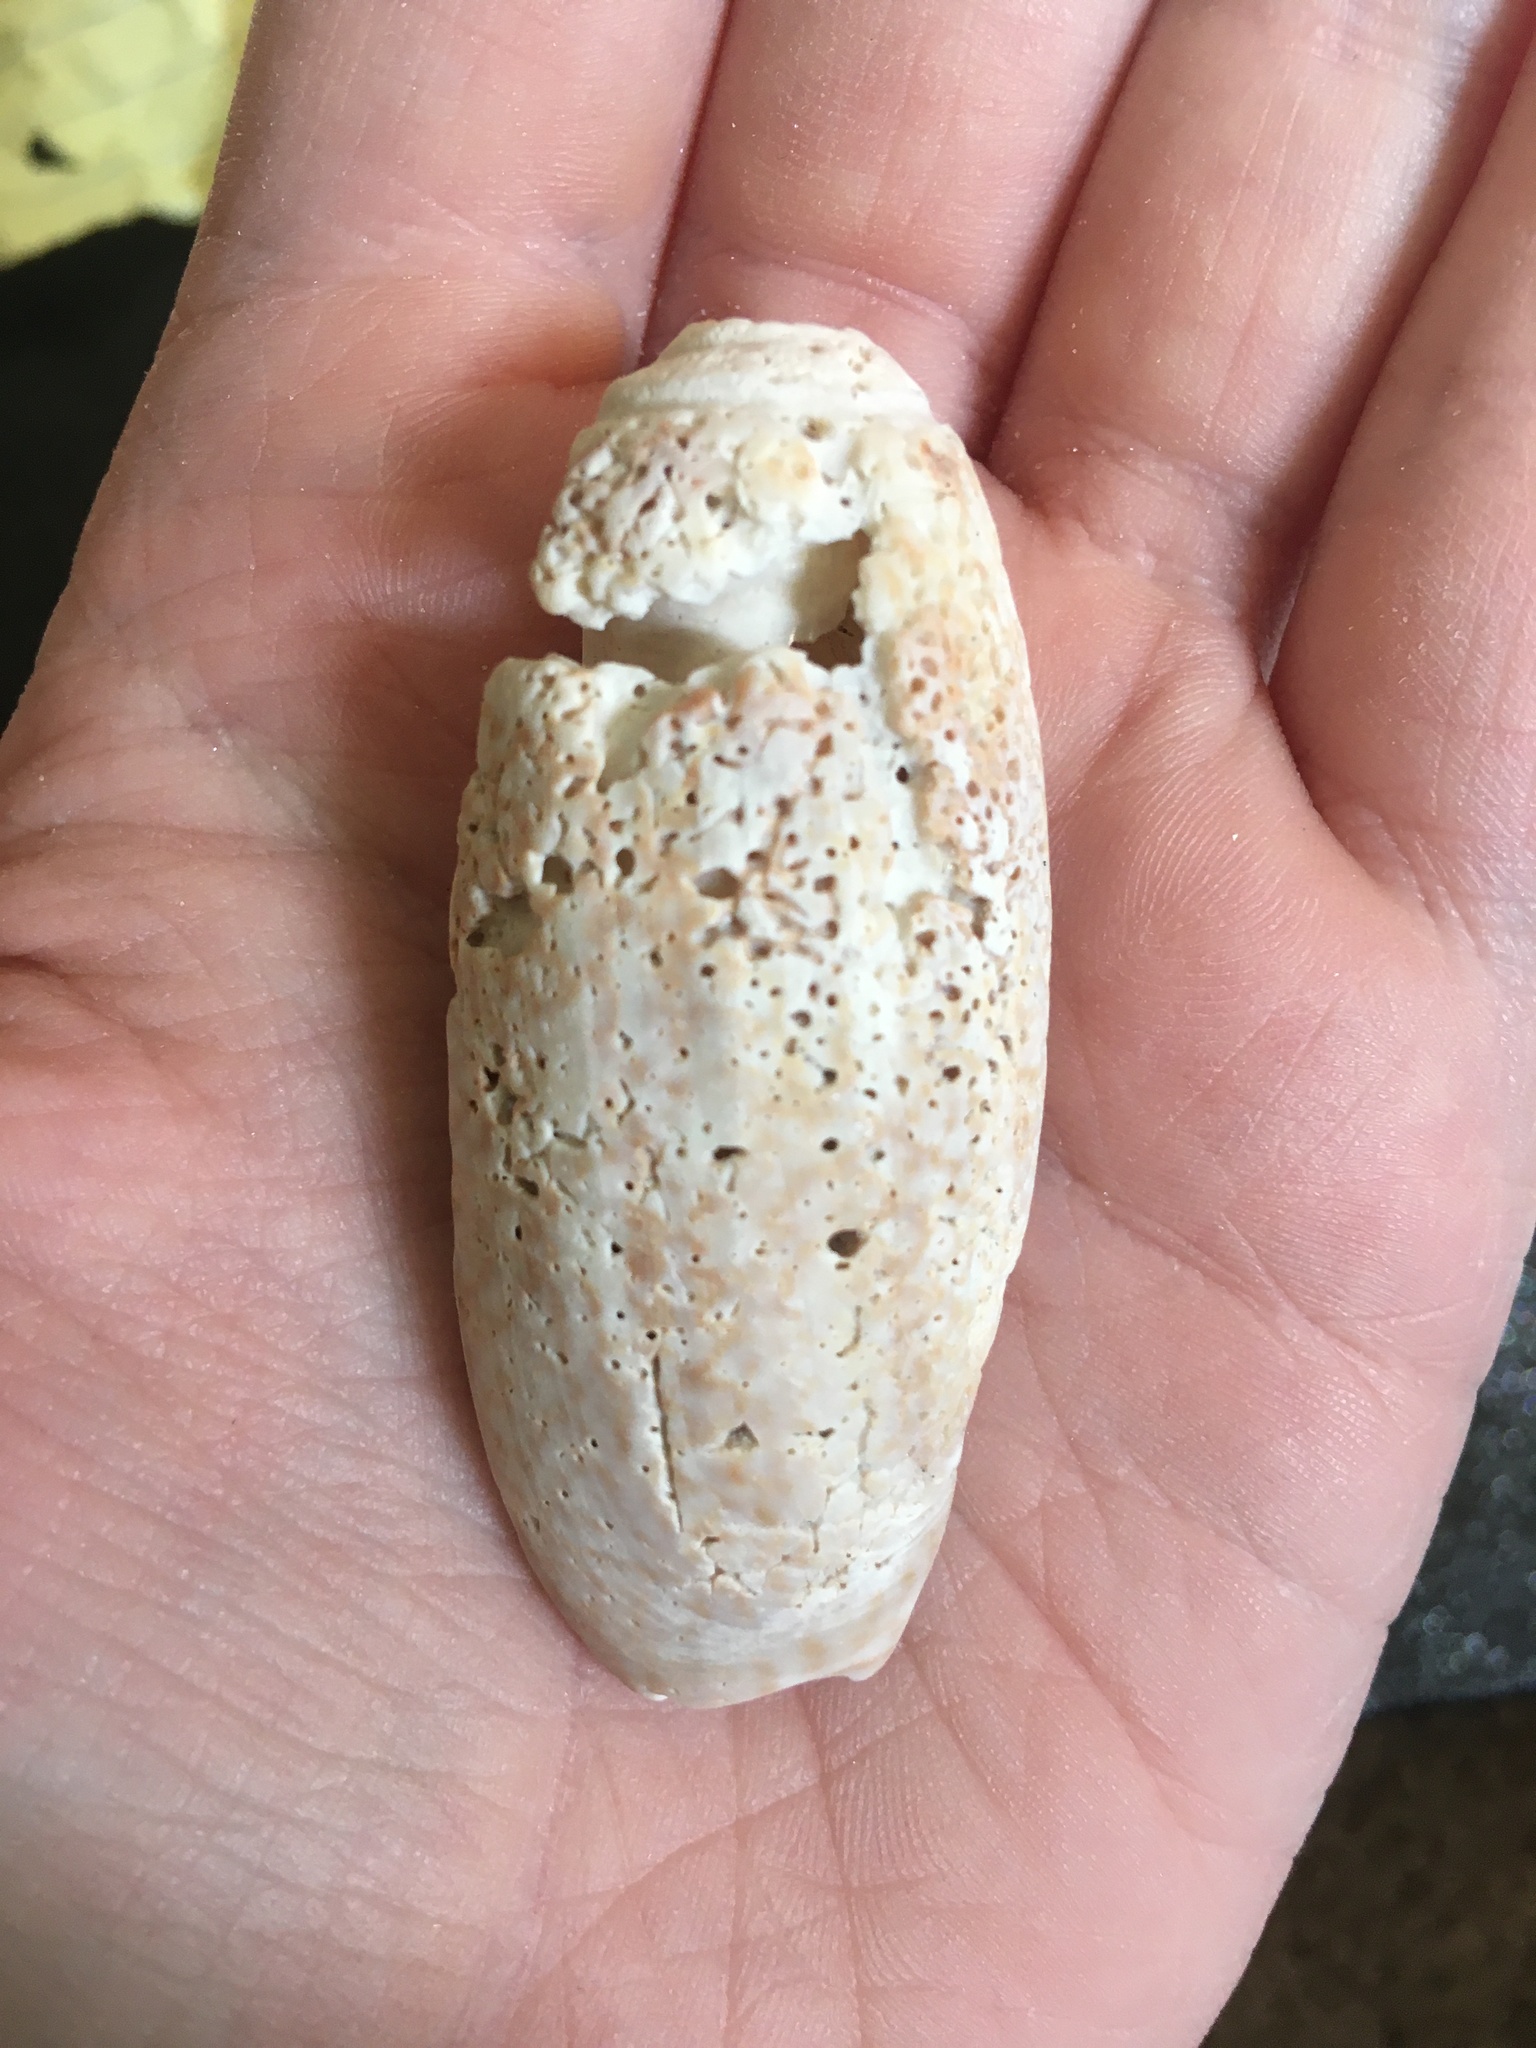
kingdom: Animalia
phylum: Mollusca
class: Gastropoda
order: Neogastropoda
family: Olividae
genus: Oliva
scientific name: Oliva sayana
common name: Lettered olive
